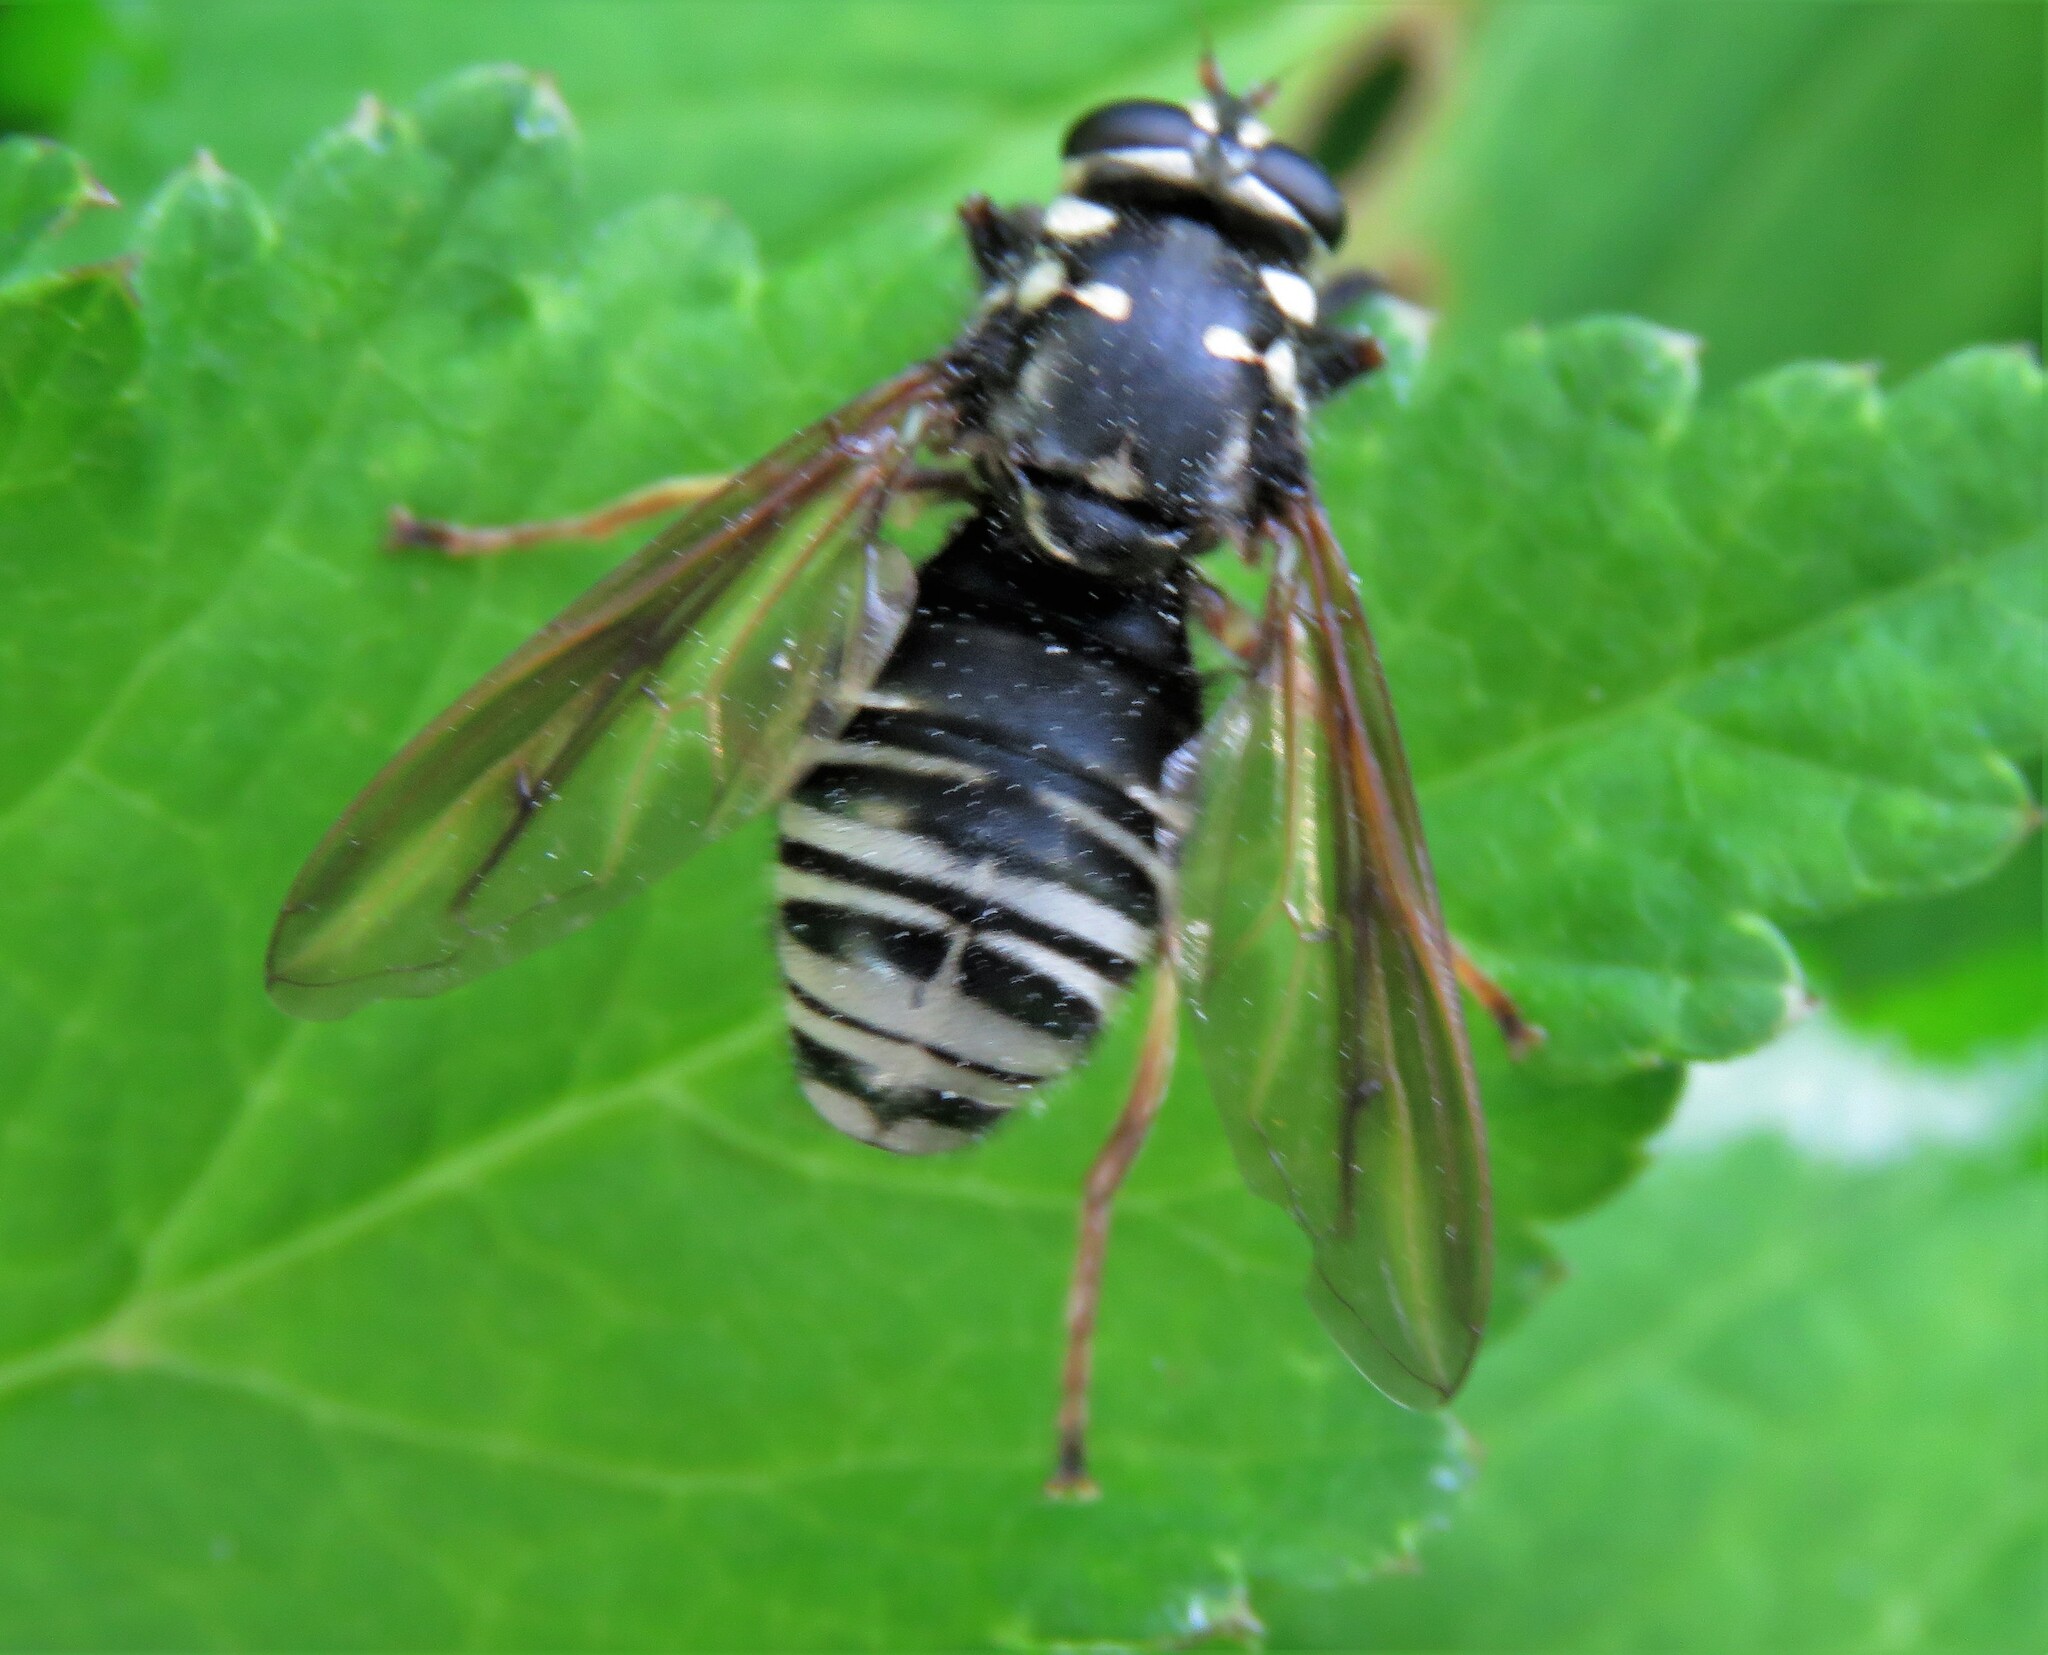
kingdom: Animalia
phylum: Arthropoda
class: Insecta
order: Diptera
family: Syrphidae
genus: Temnostoma
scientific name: Temnostoma venustum
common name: Black-banded falsehorn
